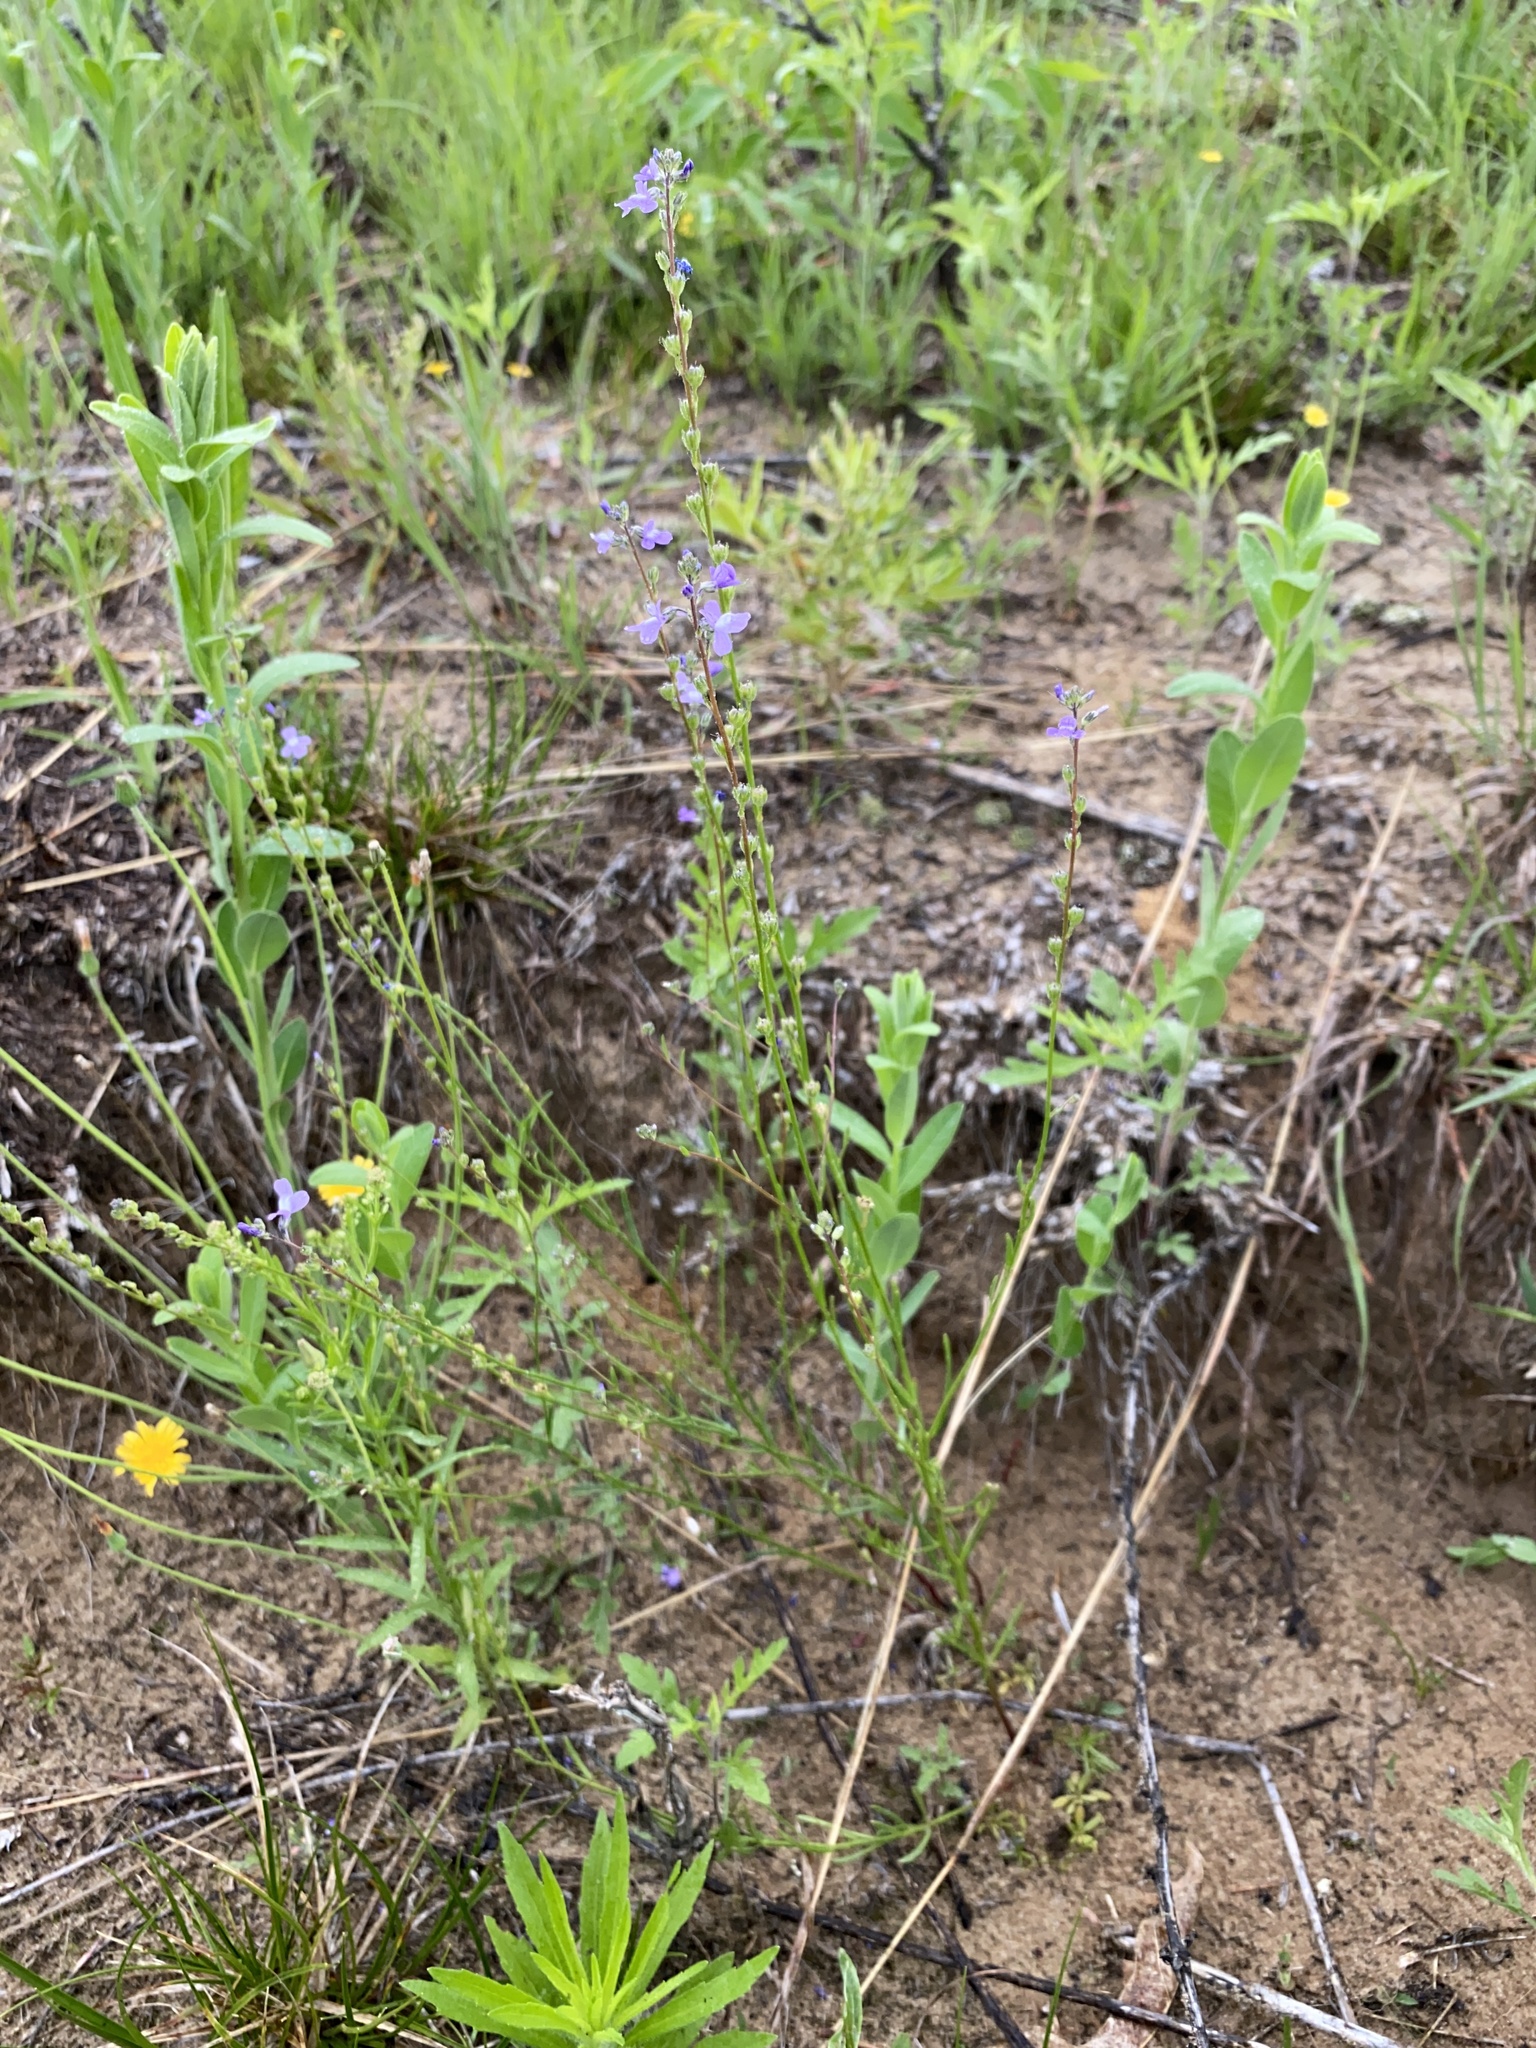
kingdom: Plantae
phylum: Tracheophyta
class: Magnoliopsida
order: Lamiales
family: Plantaginaceae
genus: Nuttallanthus
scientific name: Nuttallanthus canadensis
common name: Blue toadflax
